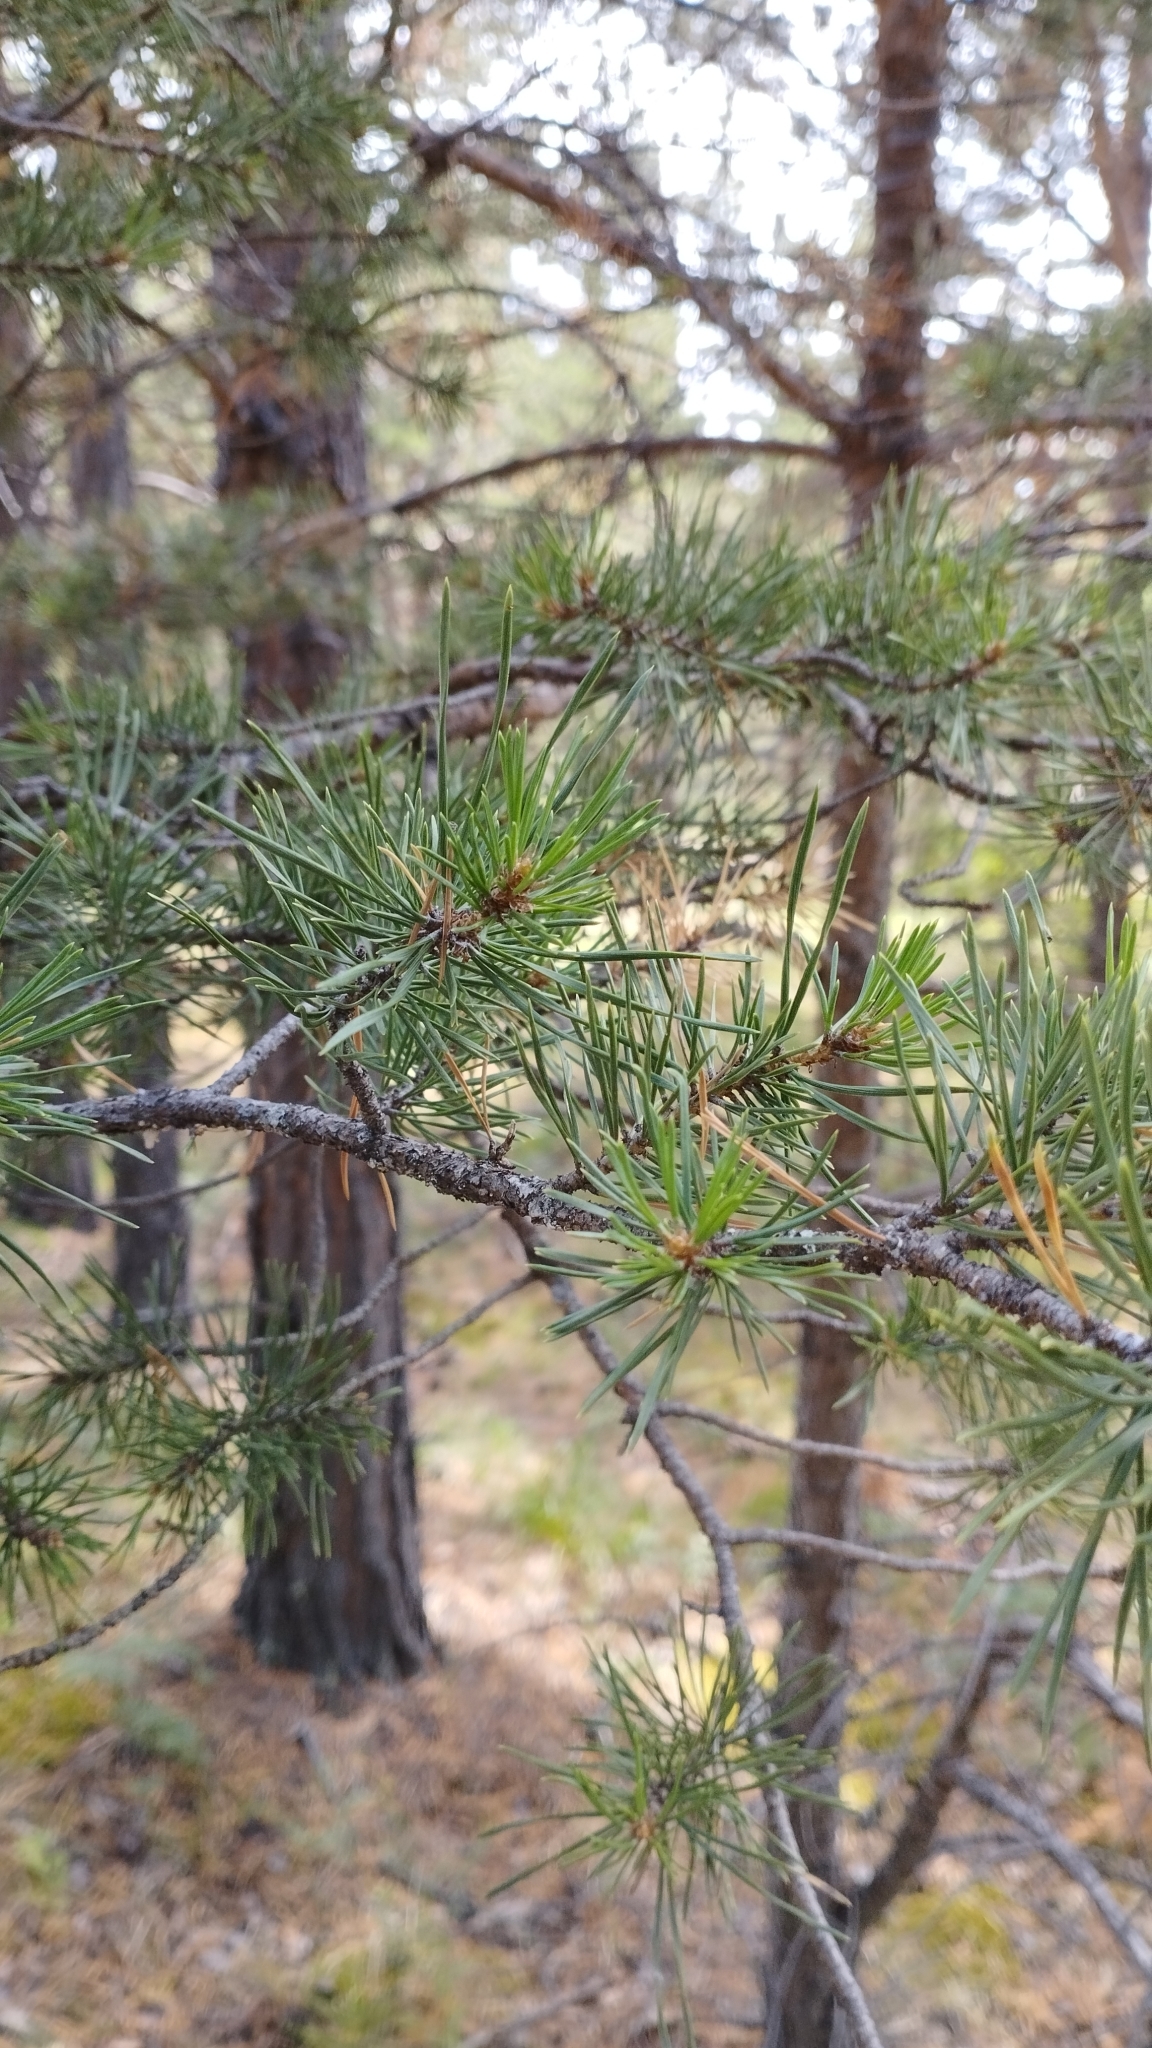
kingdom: Plantae
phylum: Tracheophyta
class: Pinopsida
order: Pinales
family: Pinaceae
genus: Pinus
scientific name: Pinus sylvestris
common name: Scots pine
